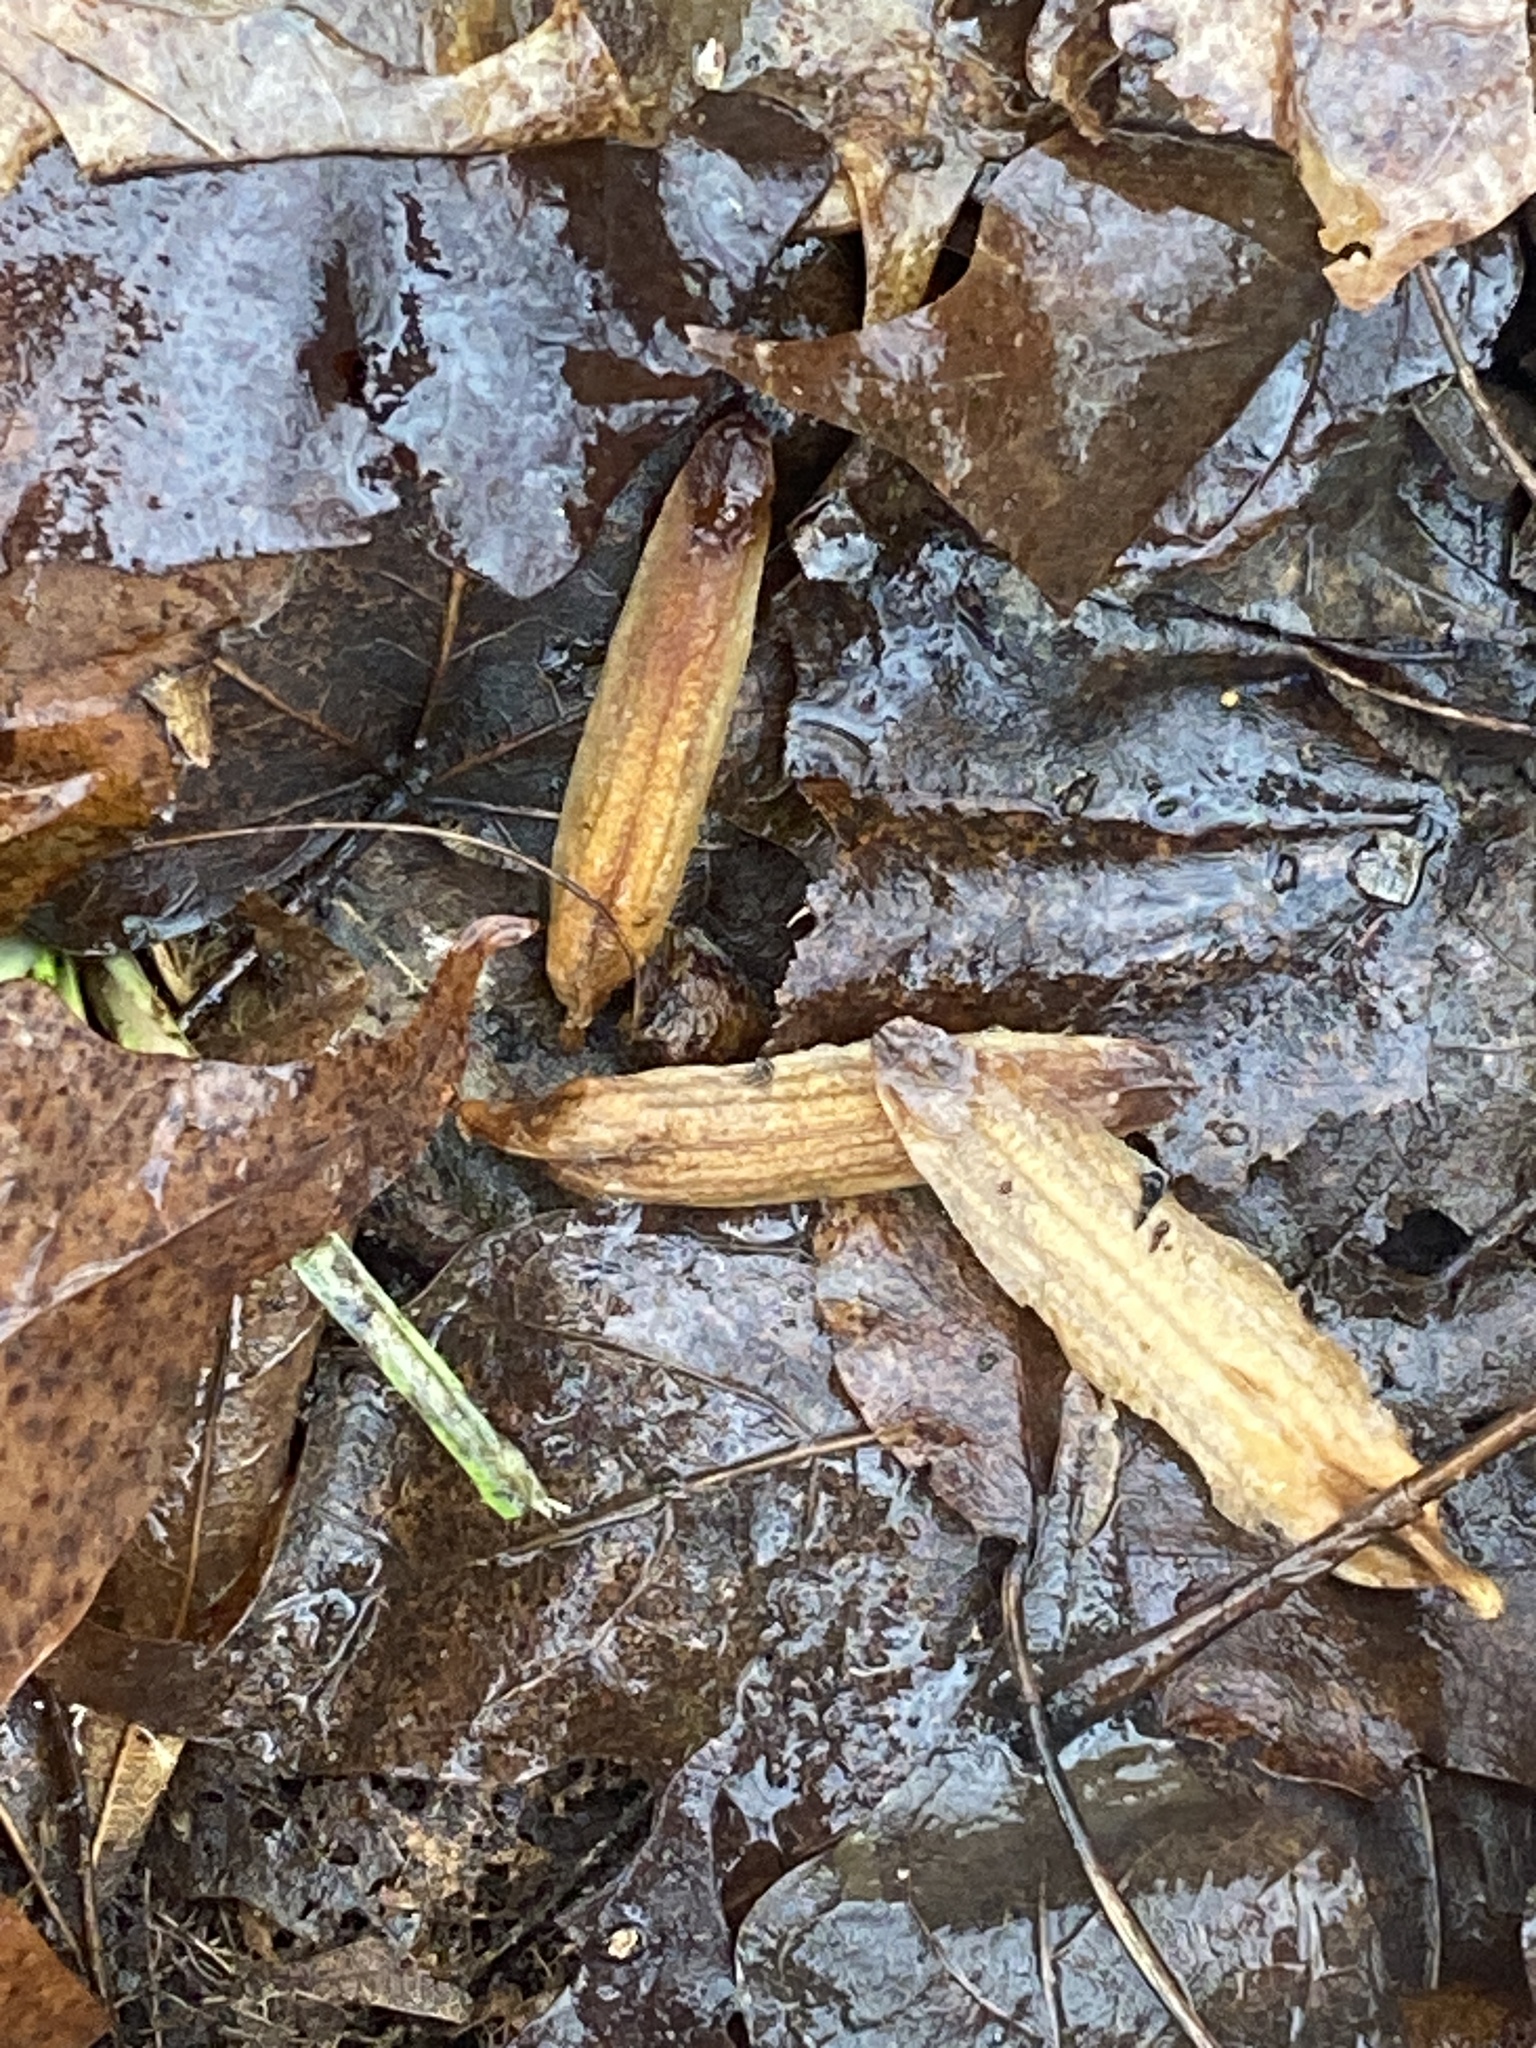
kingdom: Plantae
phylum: Tracheophyta
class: Magnoliopsida
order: Magnoliales
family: Magnoliaceae
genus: Liriodendron
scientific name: Liriodendron tulipifera
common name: Tulip tree
